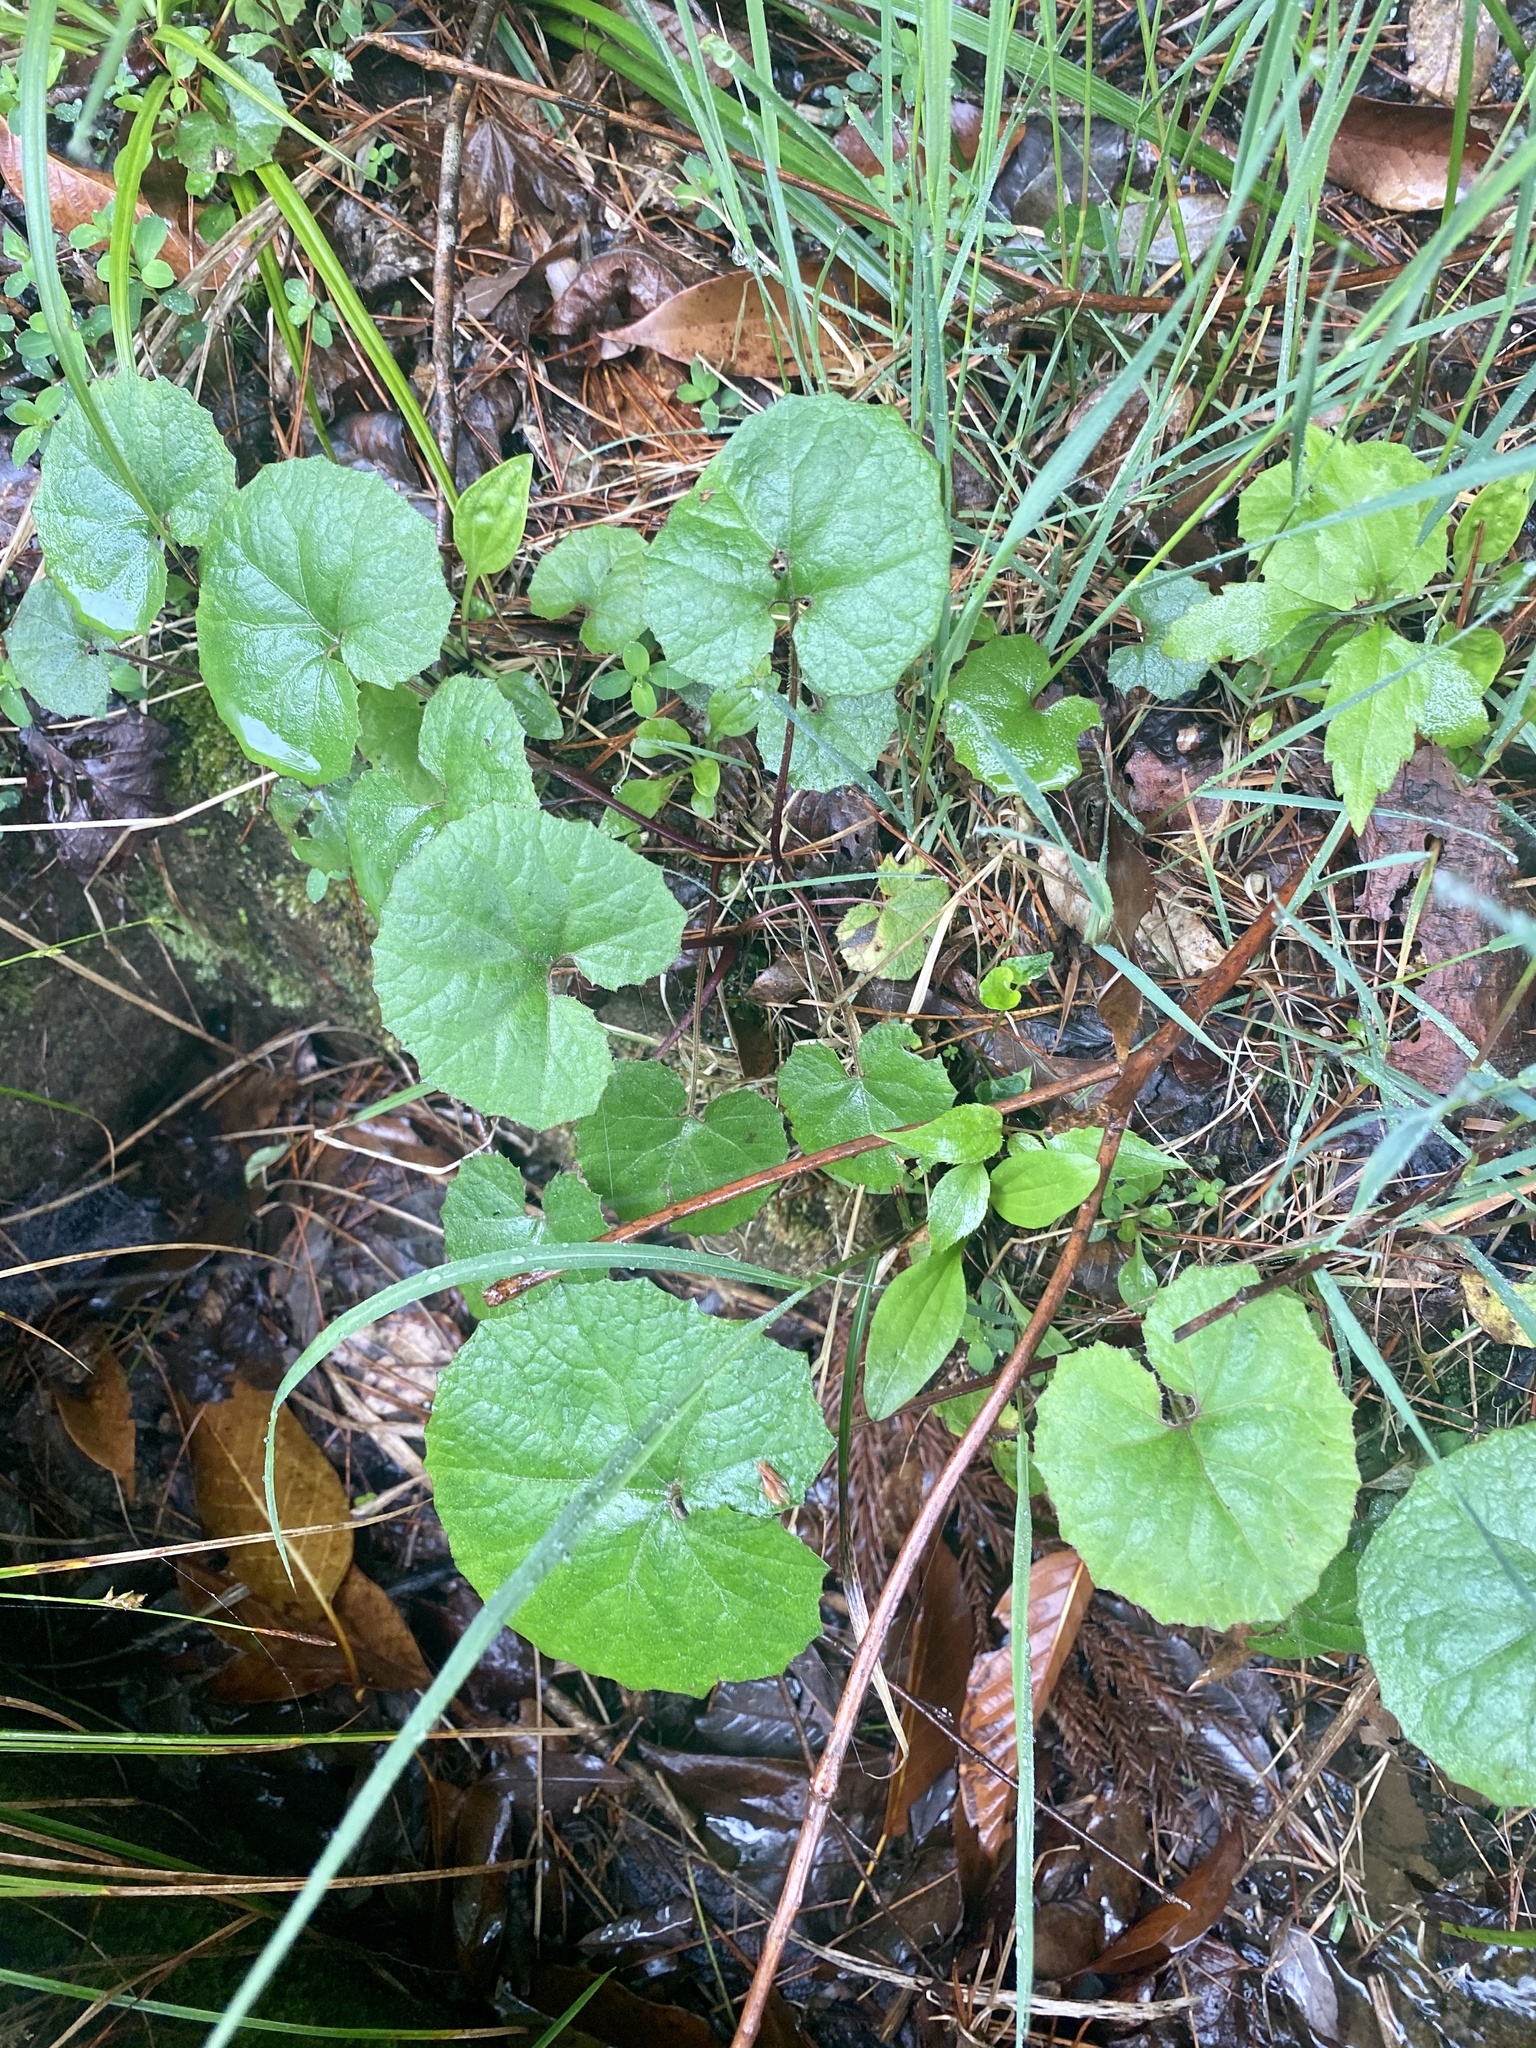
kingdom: Plantae
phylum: Tracheophyta
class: Magnoliopsida
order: Asterales
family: Asteraceae
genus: Petasites
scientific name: Petasites japonicus
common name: Giant butterbur
